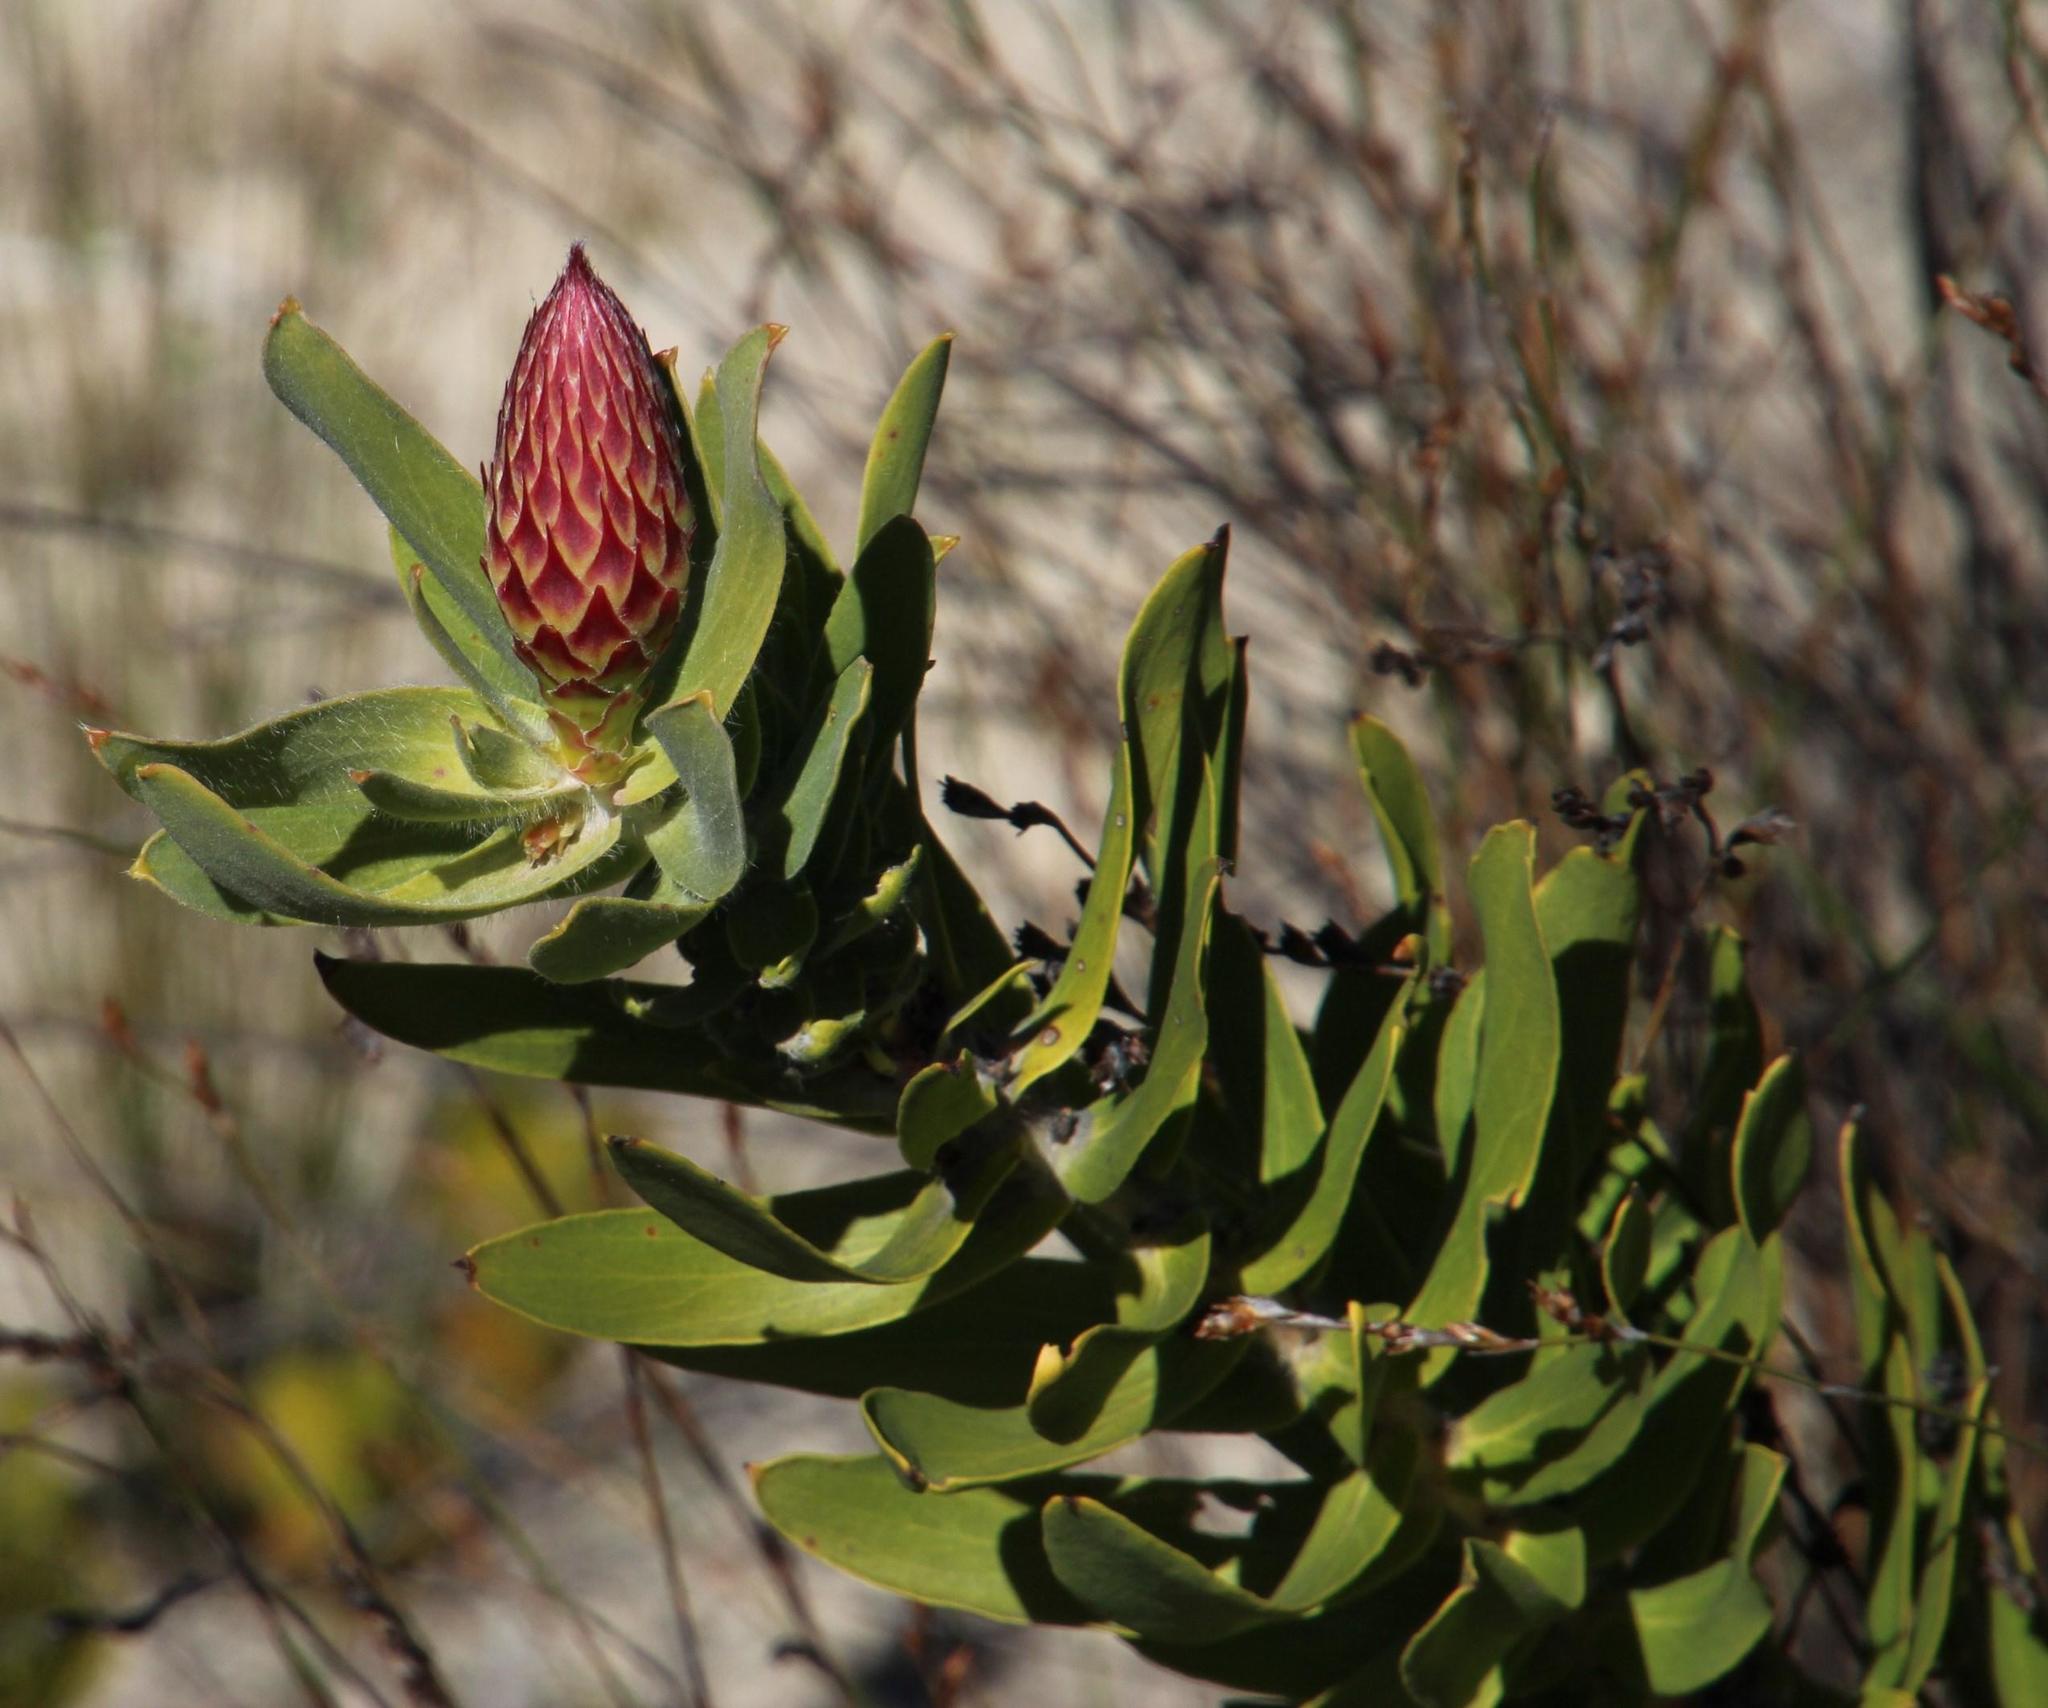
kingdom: Plantae
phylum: Tracheophyta
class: Magnoliopsida
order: Proteales
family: Proteaceae
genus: Leucospermum
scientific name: Leucospermum vestitum
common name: Silky-hair pincushion
